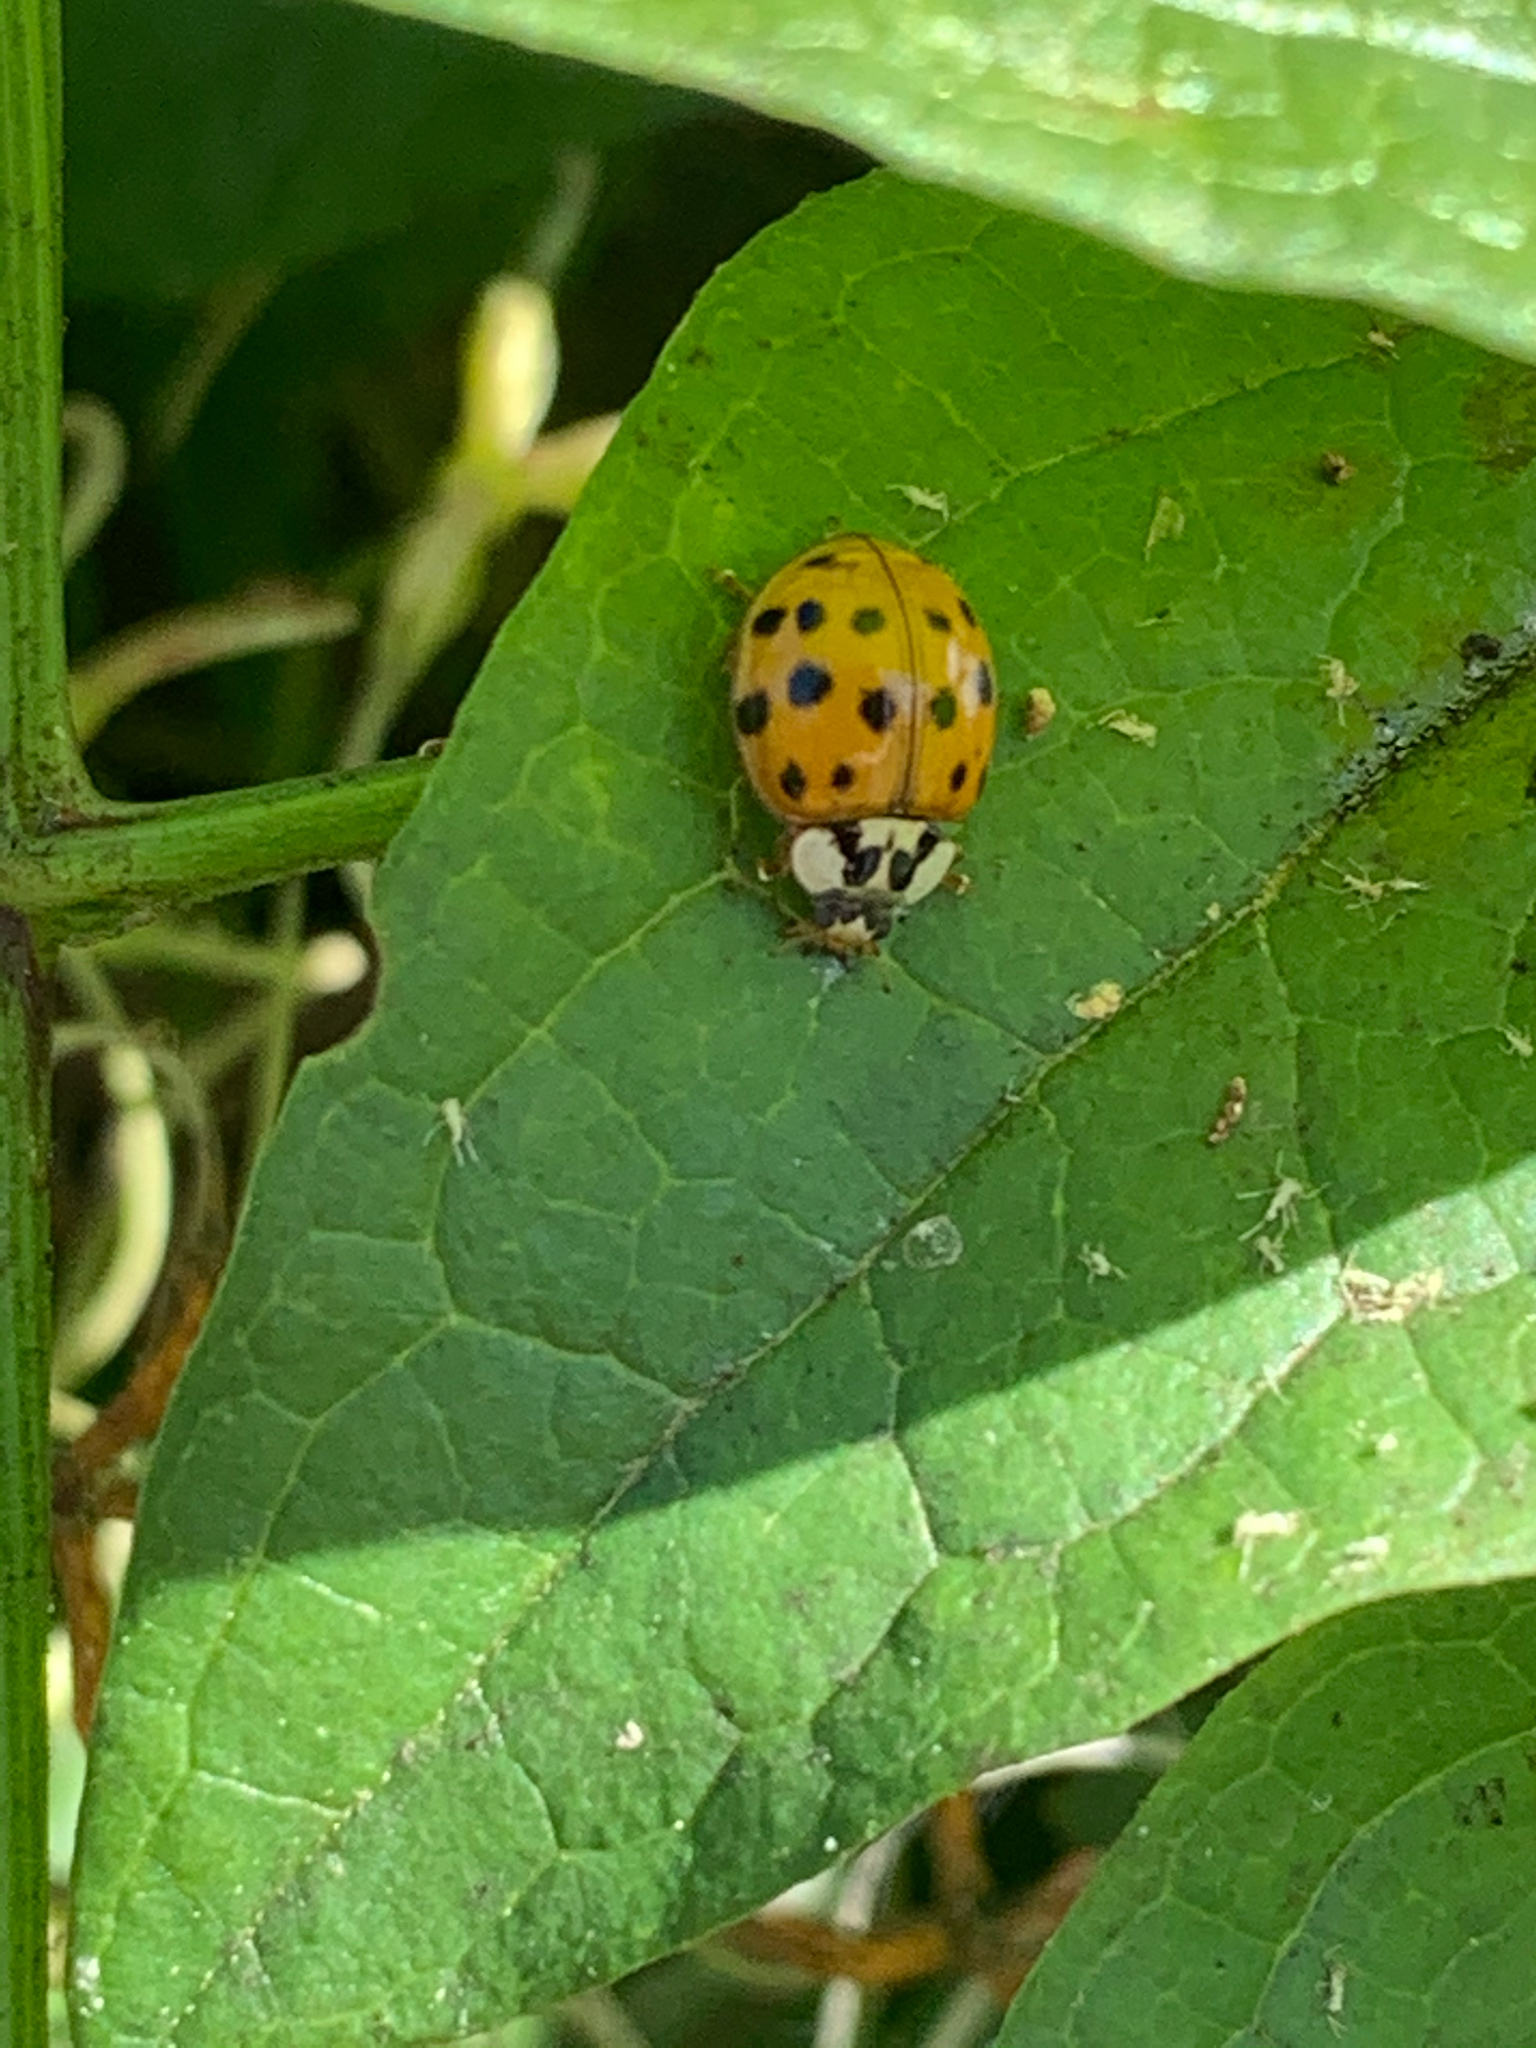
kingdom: Animalia
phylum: Arthropoda
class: Insecta
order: Coleoptera
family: Coccinellidae
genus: Harmonia
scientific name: Harmonia axyridis
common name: Harlequin ladybird
